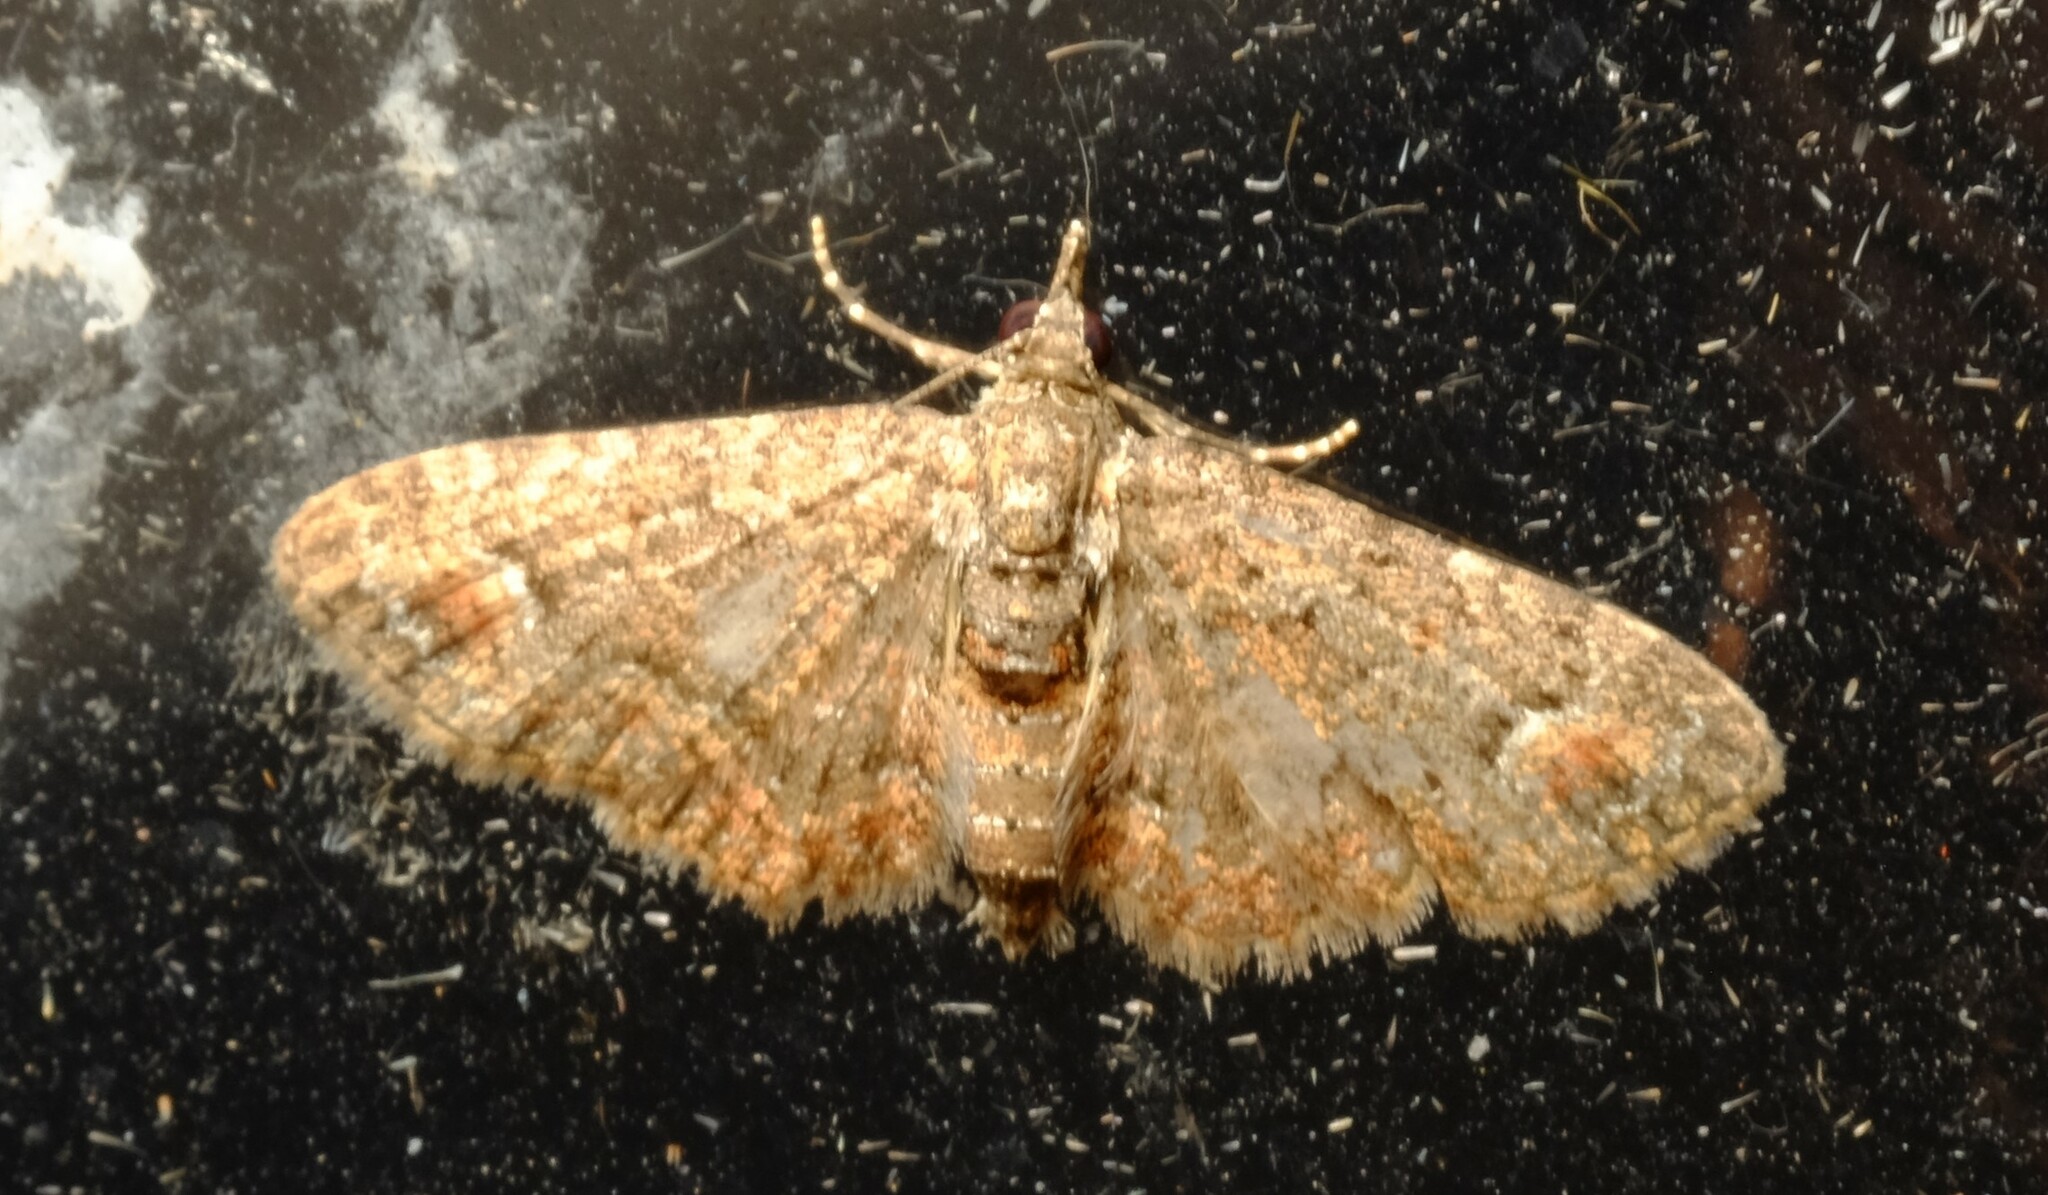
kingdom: Animalia
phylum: Arthropoda
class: Insecta
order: Lepidoptera
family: Geometridae
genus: Pasiphilodes
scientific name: Pasiphilodes testulata
